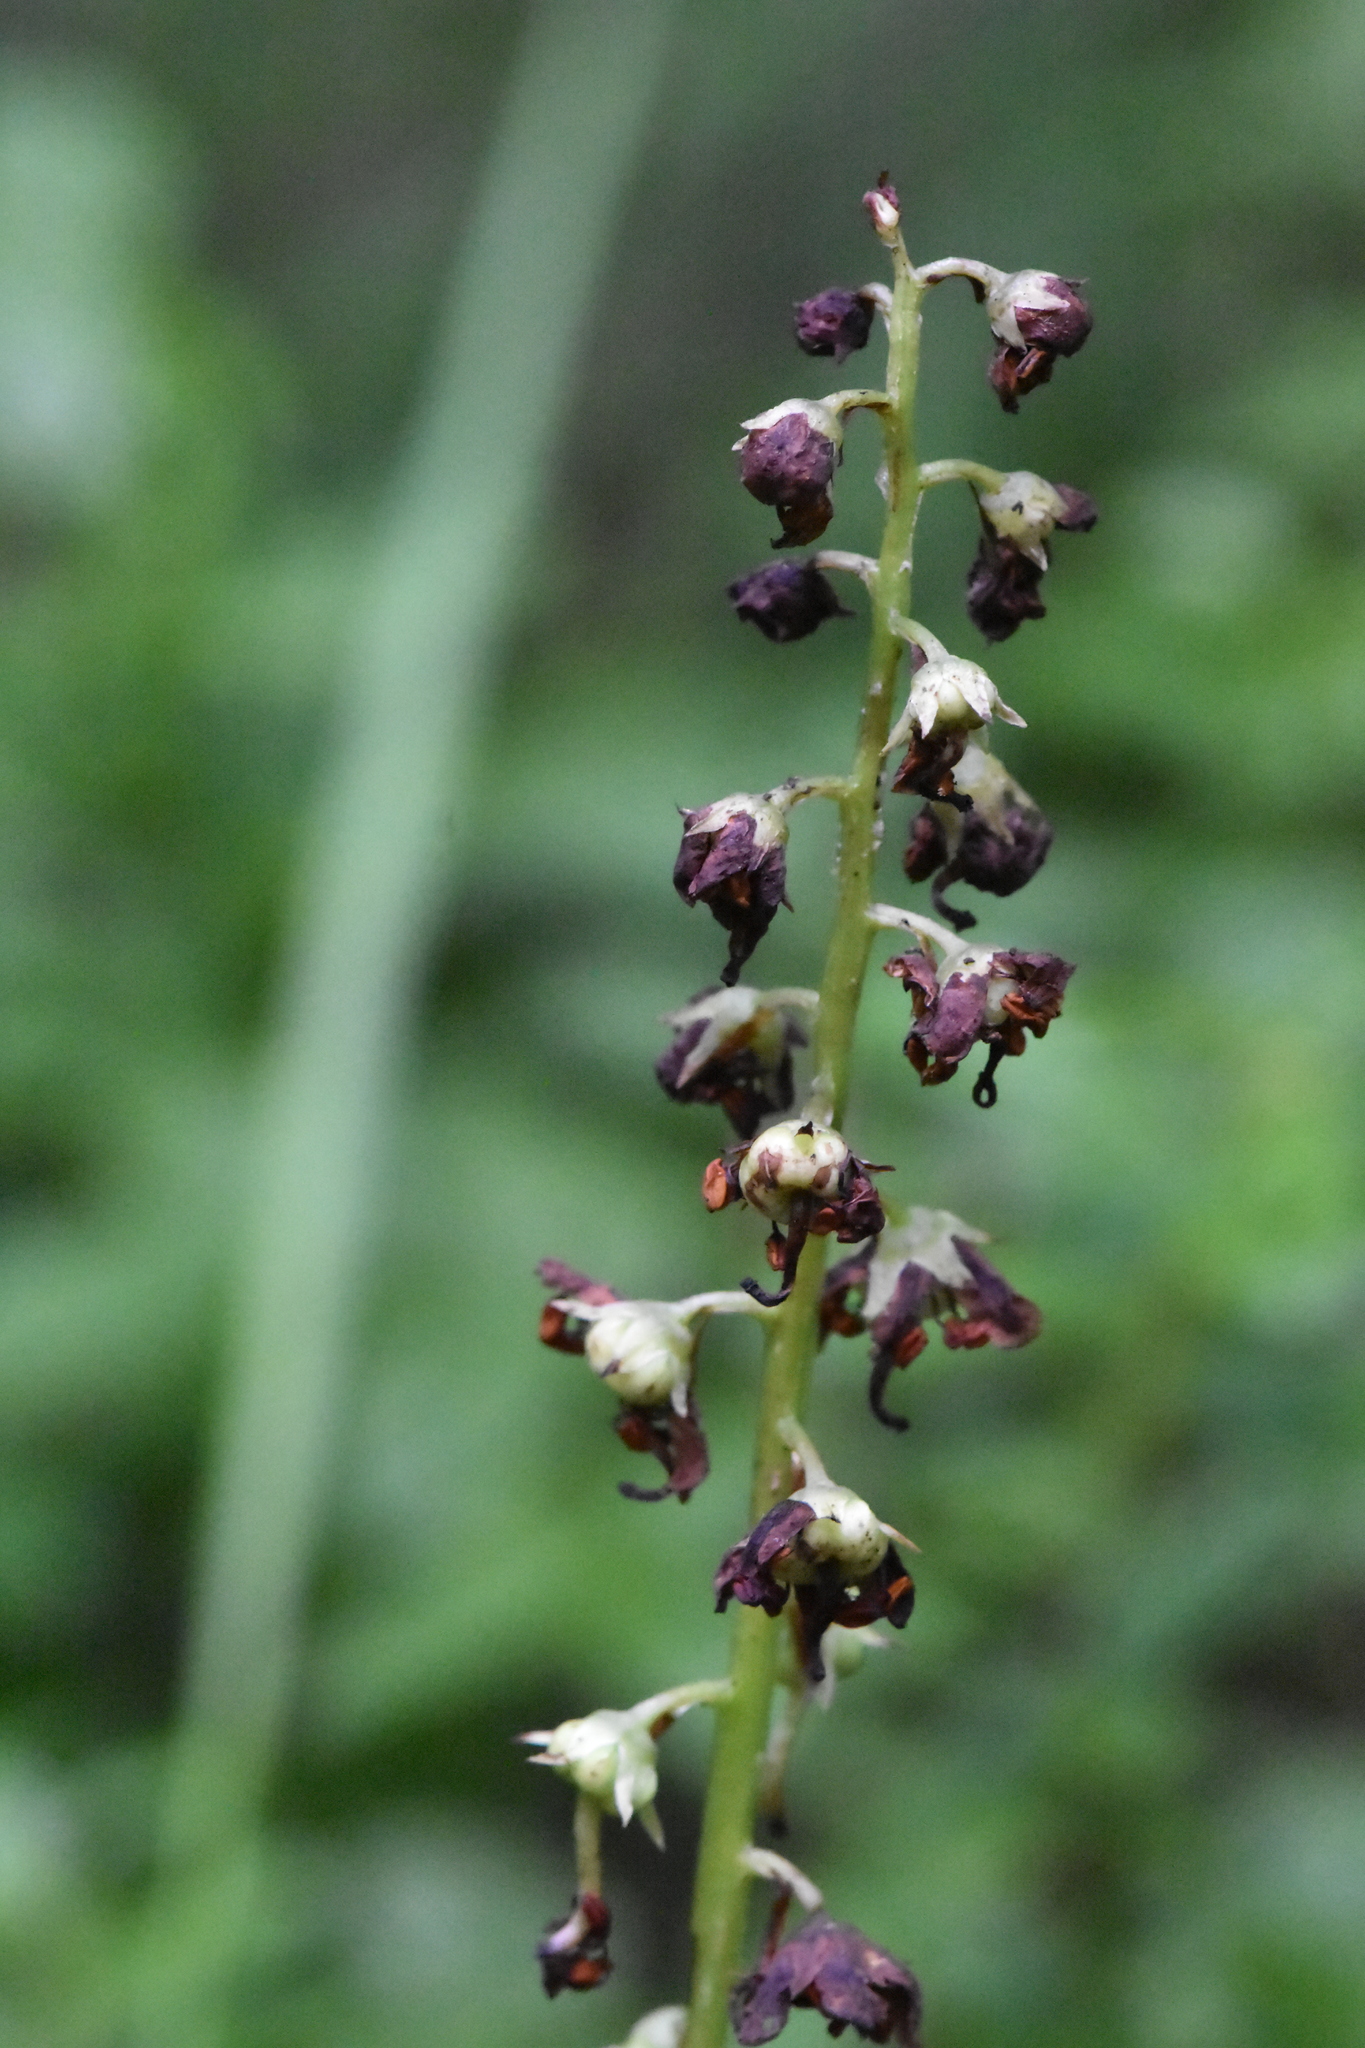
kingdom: Plantae
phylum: Tracheophyta
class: Magnoliopsida
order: Ericales
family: Ericaceae
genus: Pyrola
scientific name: Pyrola rotundifolia
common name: Round-leaved wintergreen
